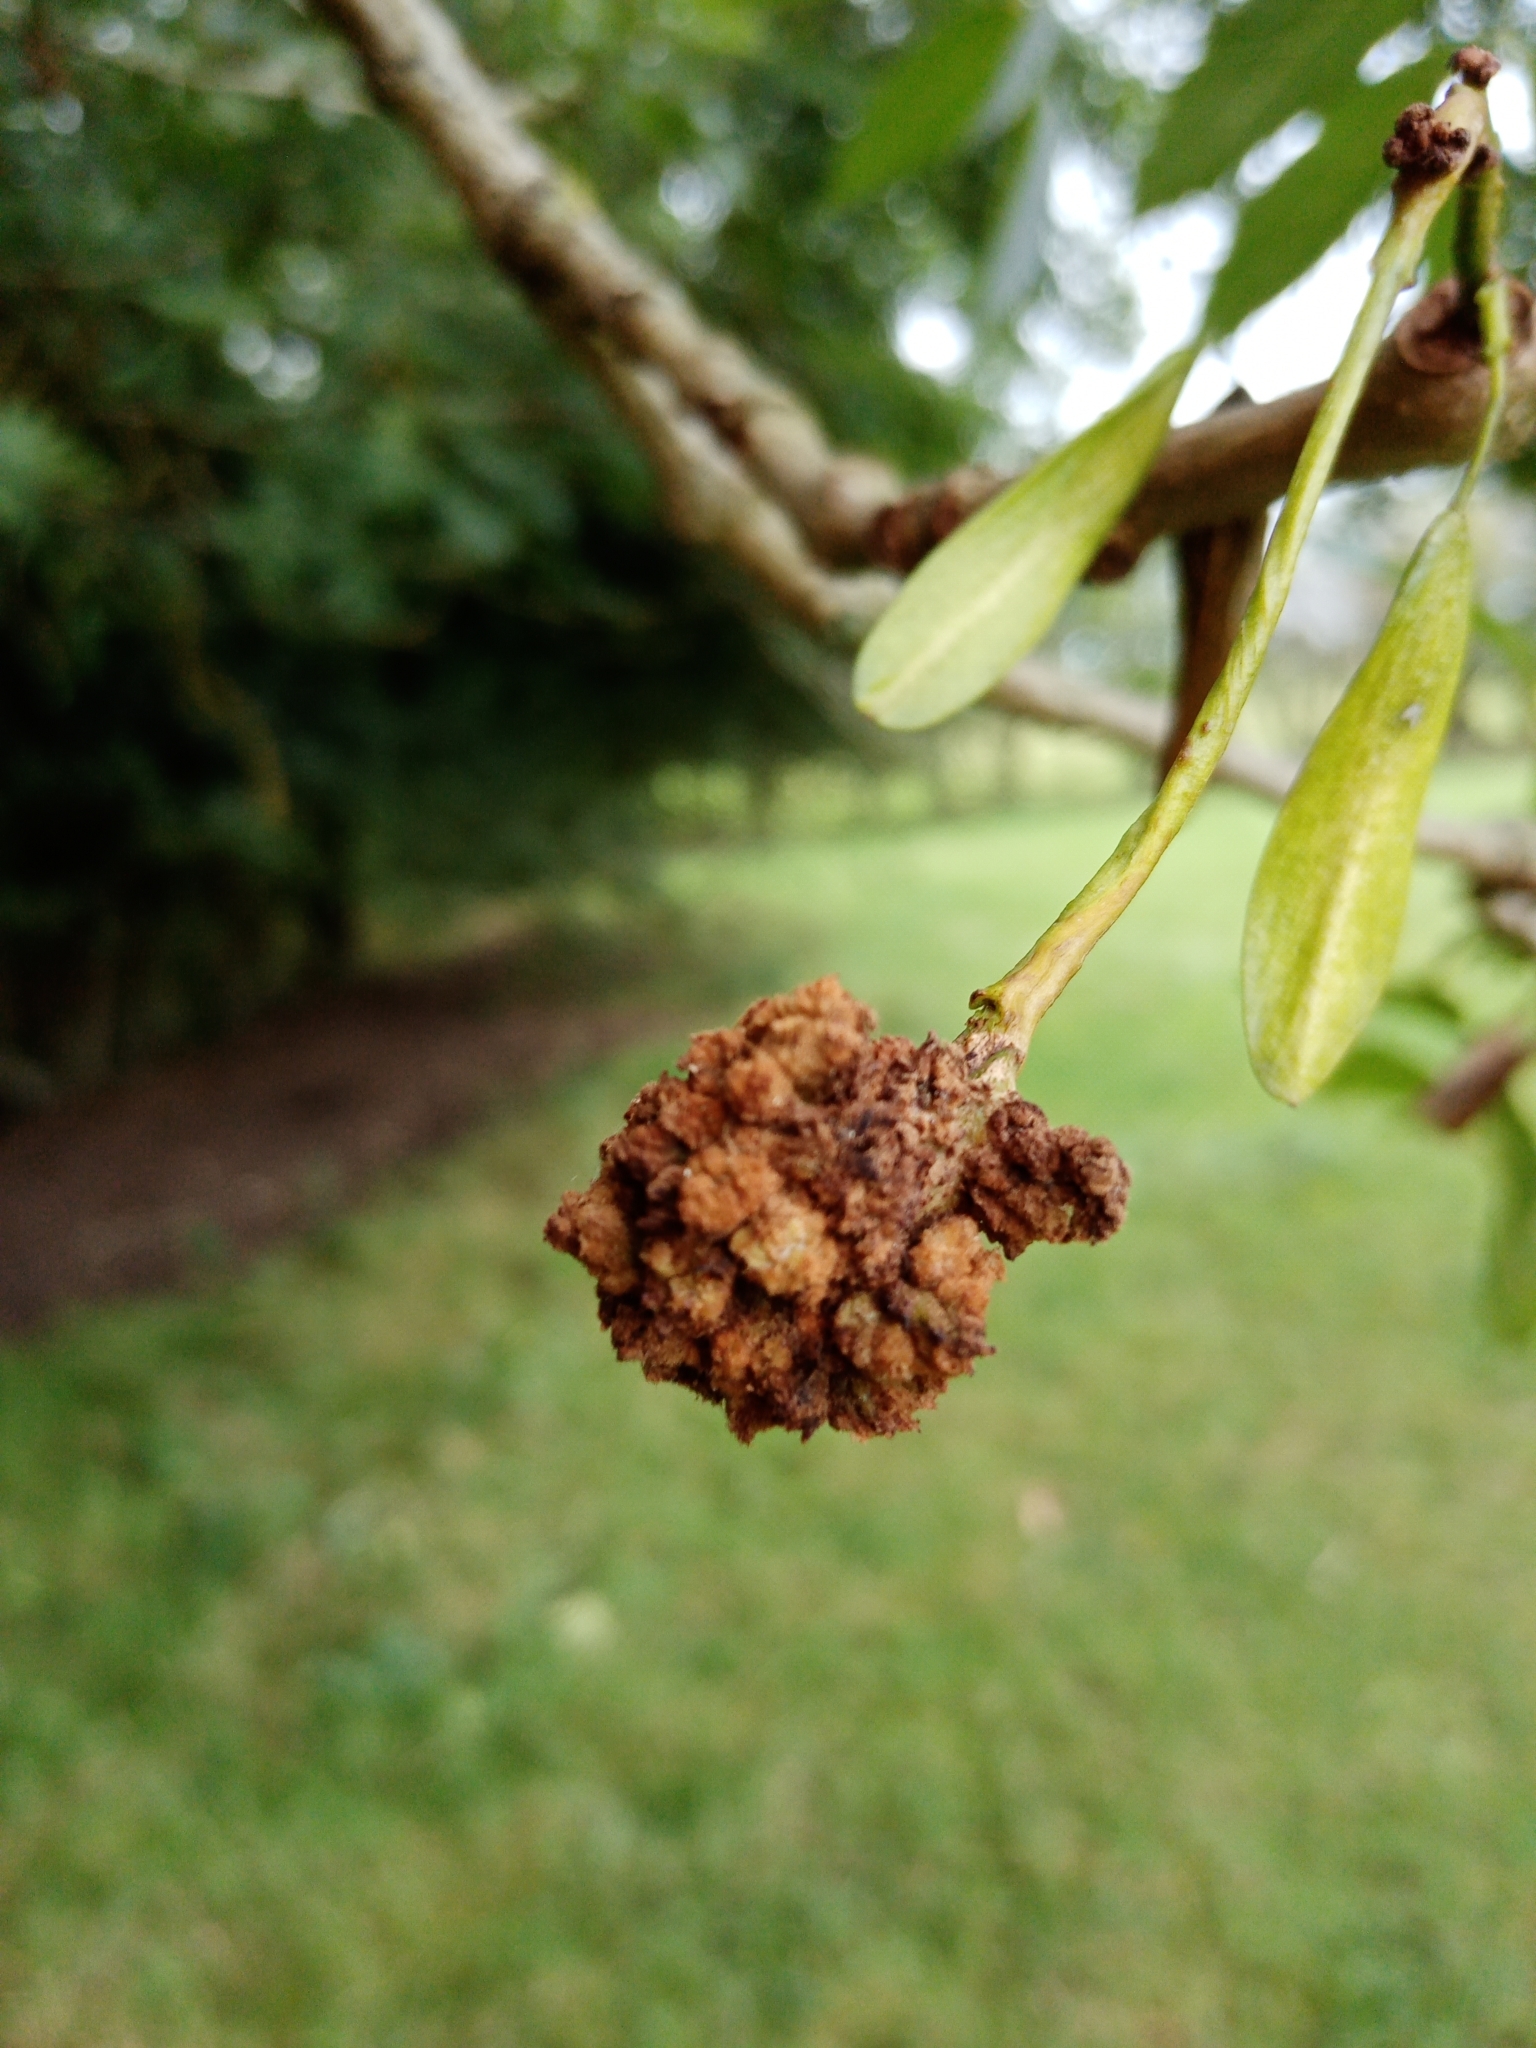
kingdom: Animalia
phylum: Arthropoda
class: Arachnida
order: Trombidiformes
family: Eriophyidae
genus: Aceria
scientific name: Aceria fraxinivora
